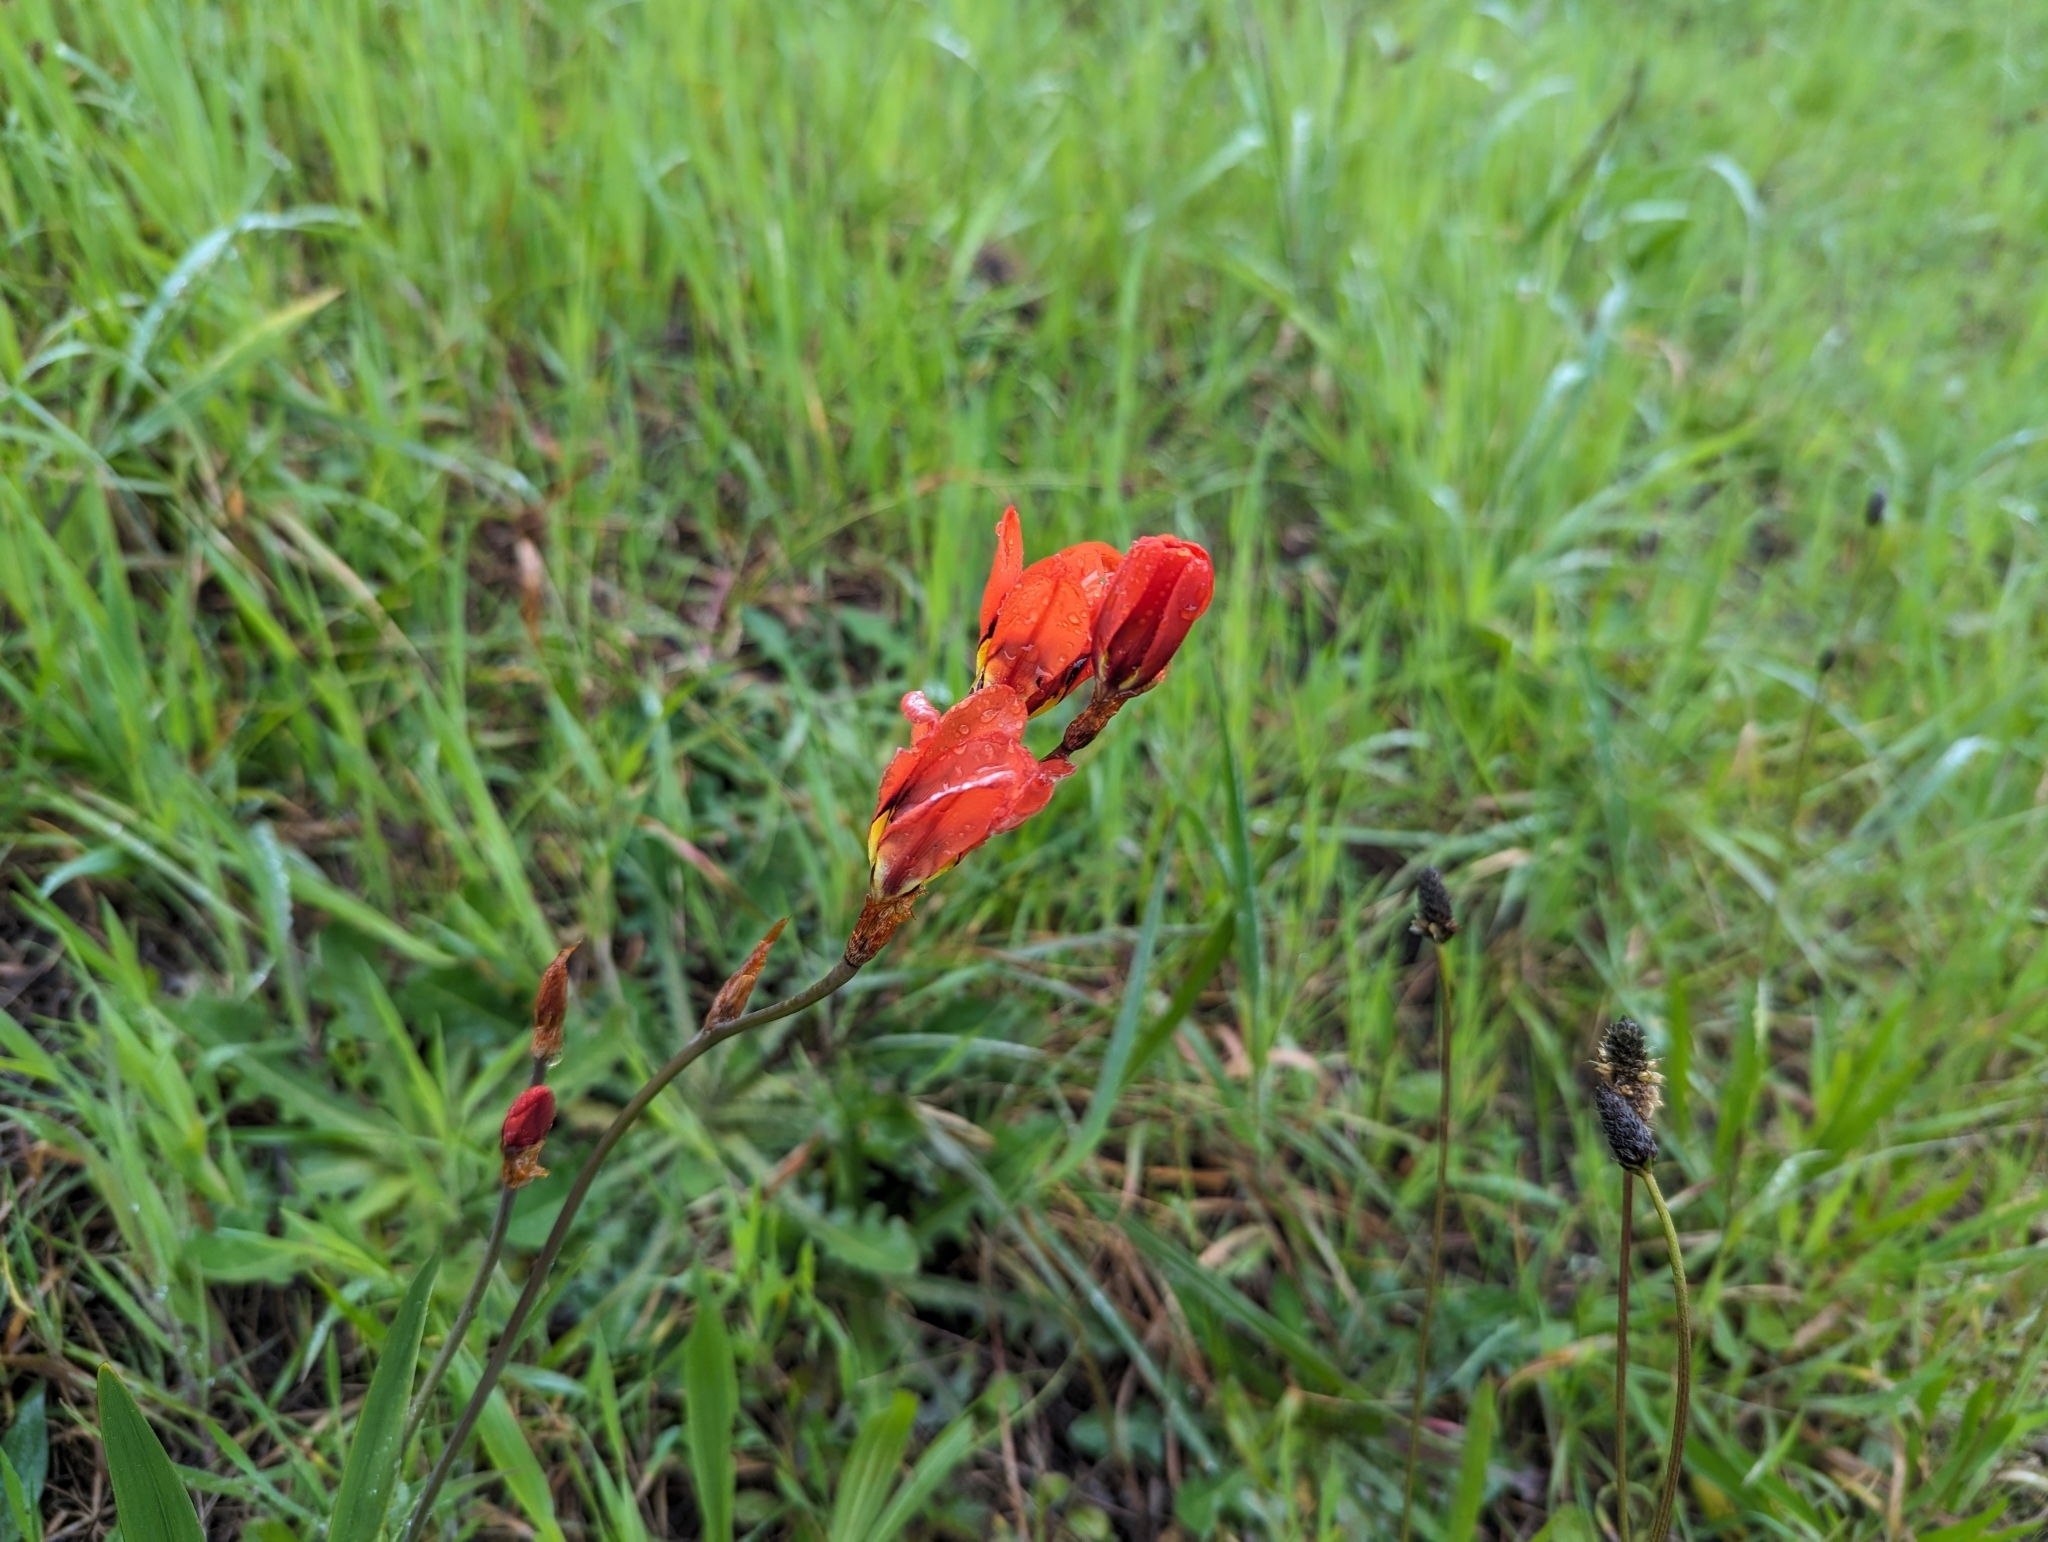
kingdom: Plantae
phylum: Tracheophyta
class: Liliopsida
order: Asparagales
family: Iridaceae
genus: Sparaxis
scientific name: Sparaxis tricolor
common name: Wandflower
